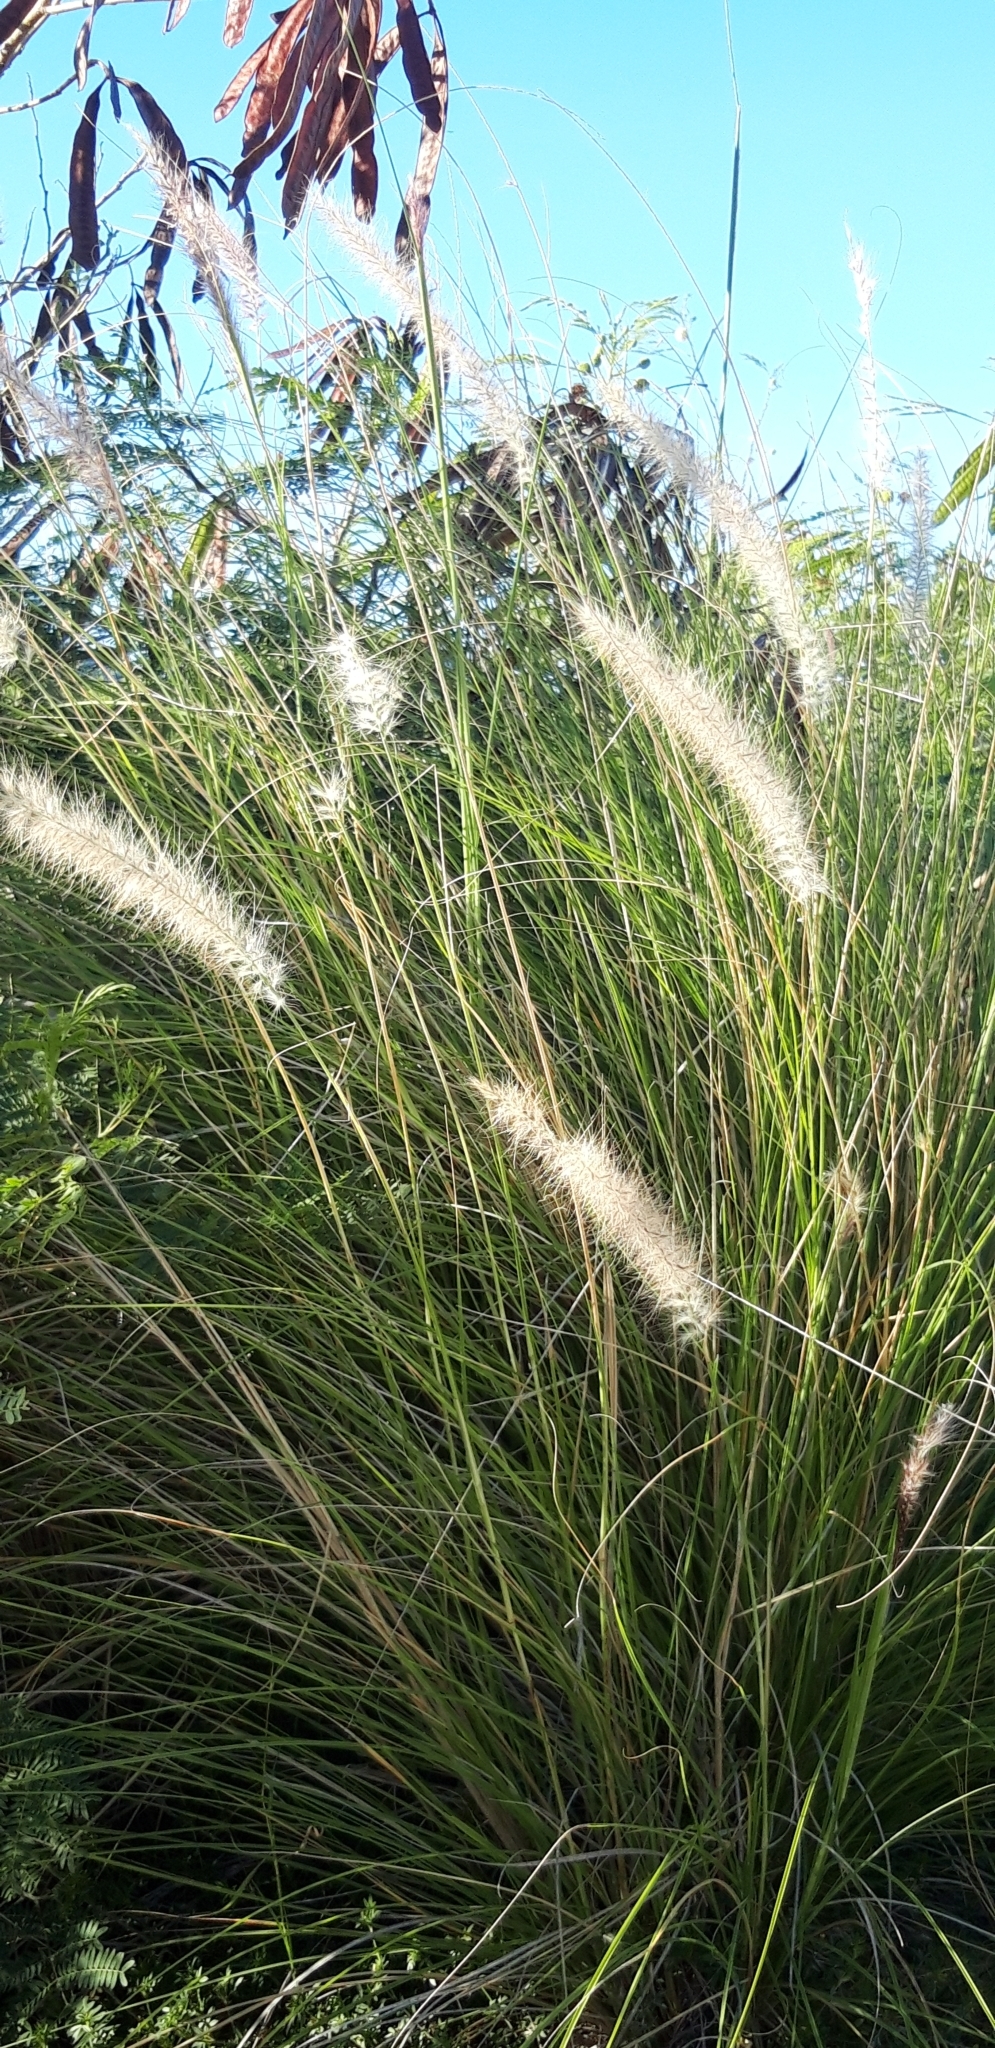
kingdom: Plantae
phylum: Tracheophyta
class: Liliopsida
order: Poales
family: Poaceae
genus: Cenchrus
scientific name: Cenchrus setaceus
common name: Crimson fountaingrass
